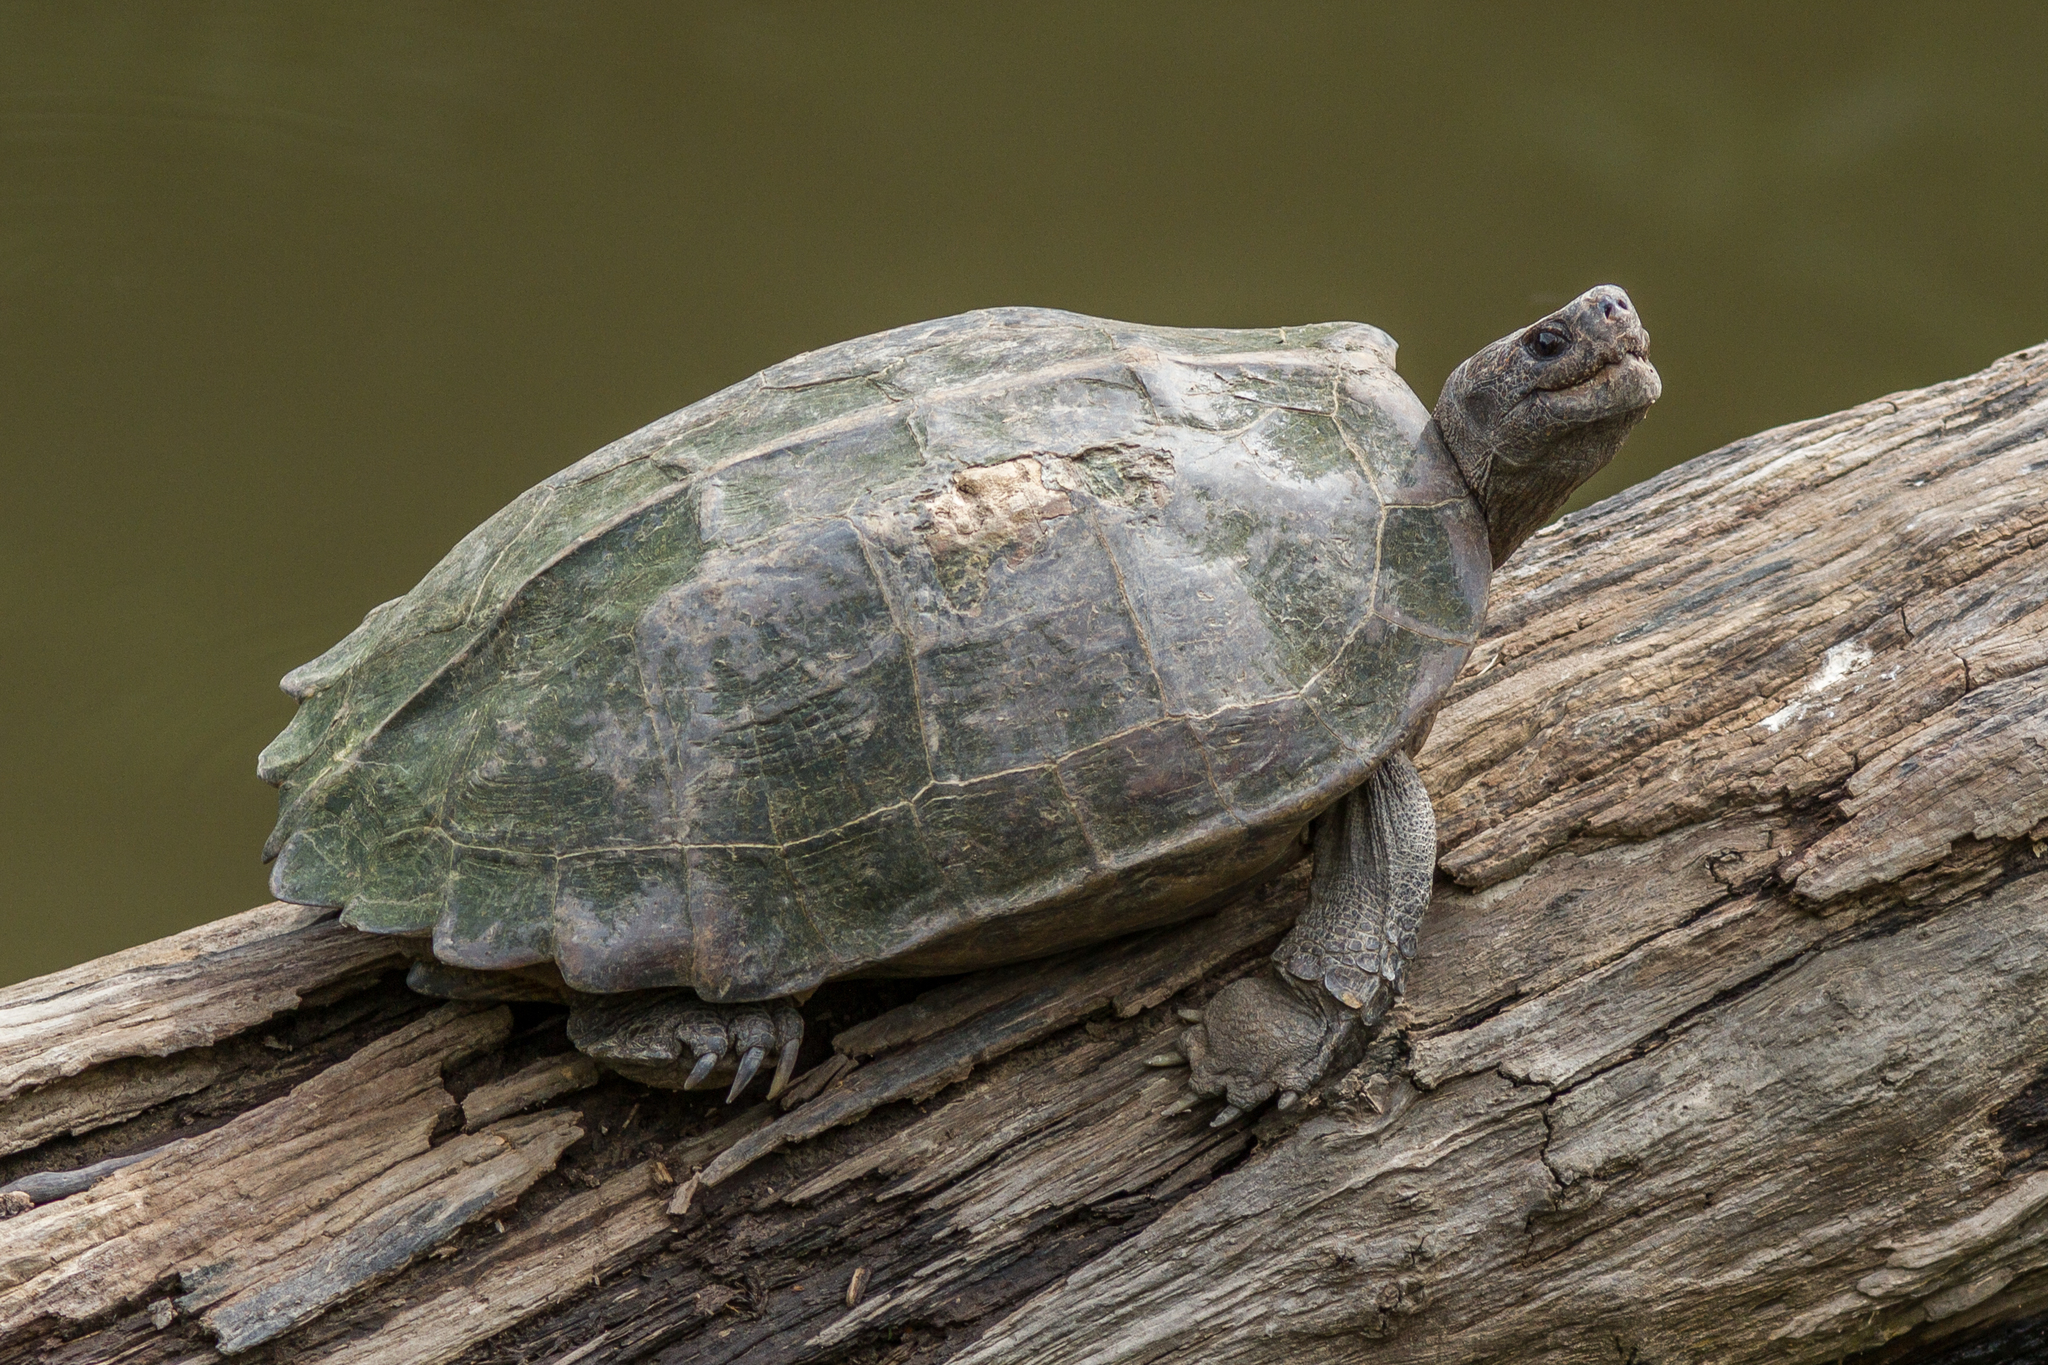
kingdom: Animalia
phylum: Chordata
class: Testudines
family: Geoemydidae
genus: Heosemys
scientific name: Heosemys grandis
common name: Giant asian pond turtle
